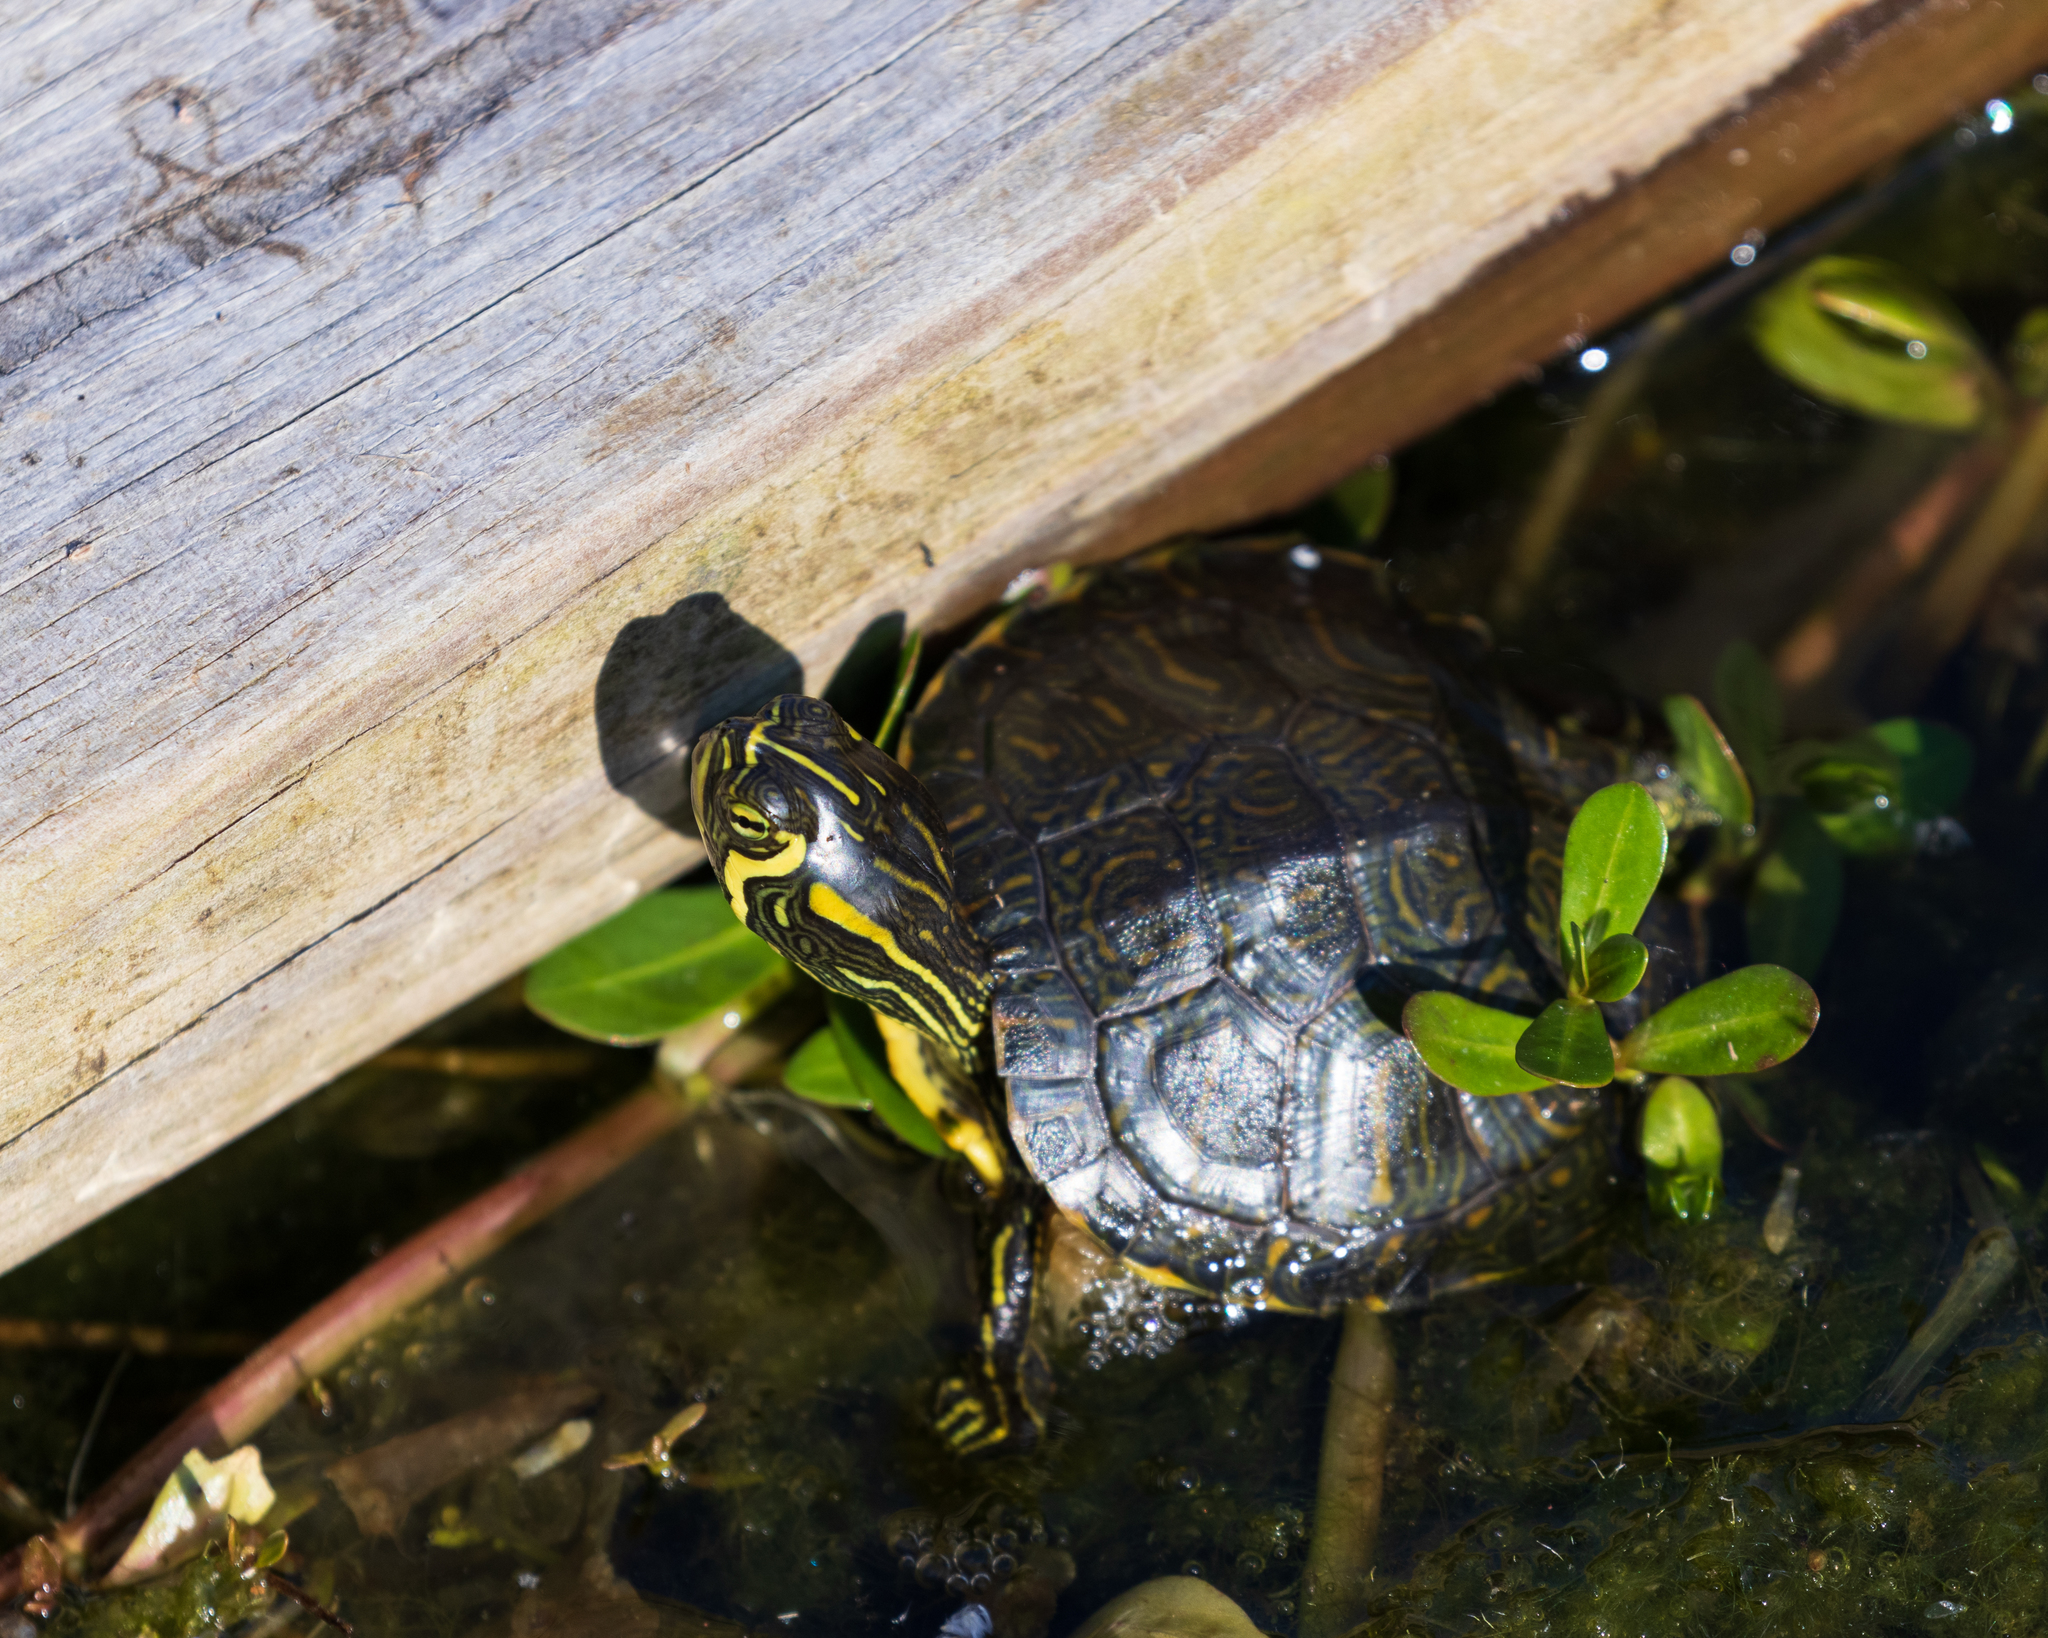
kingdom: Animalia
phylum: Chordata
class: Testudines
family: Emydidae
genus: Trachemys
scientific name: Trachemys scripta
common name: Slider
